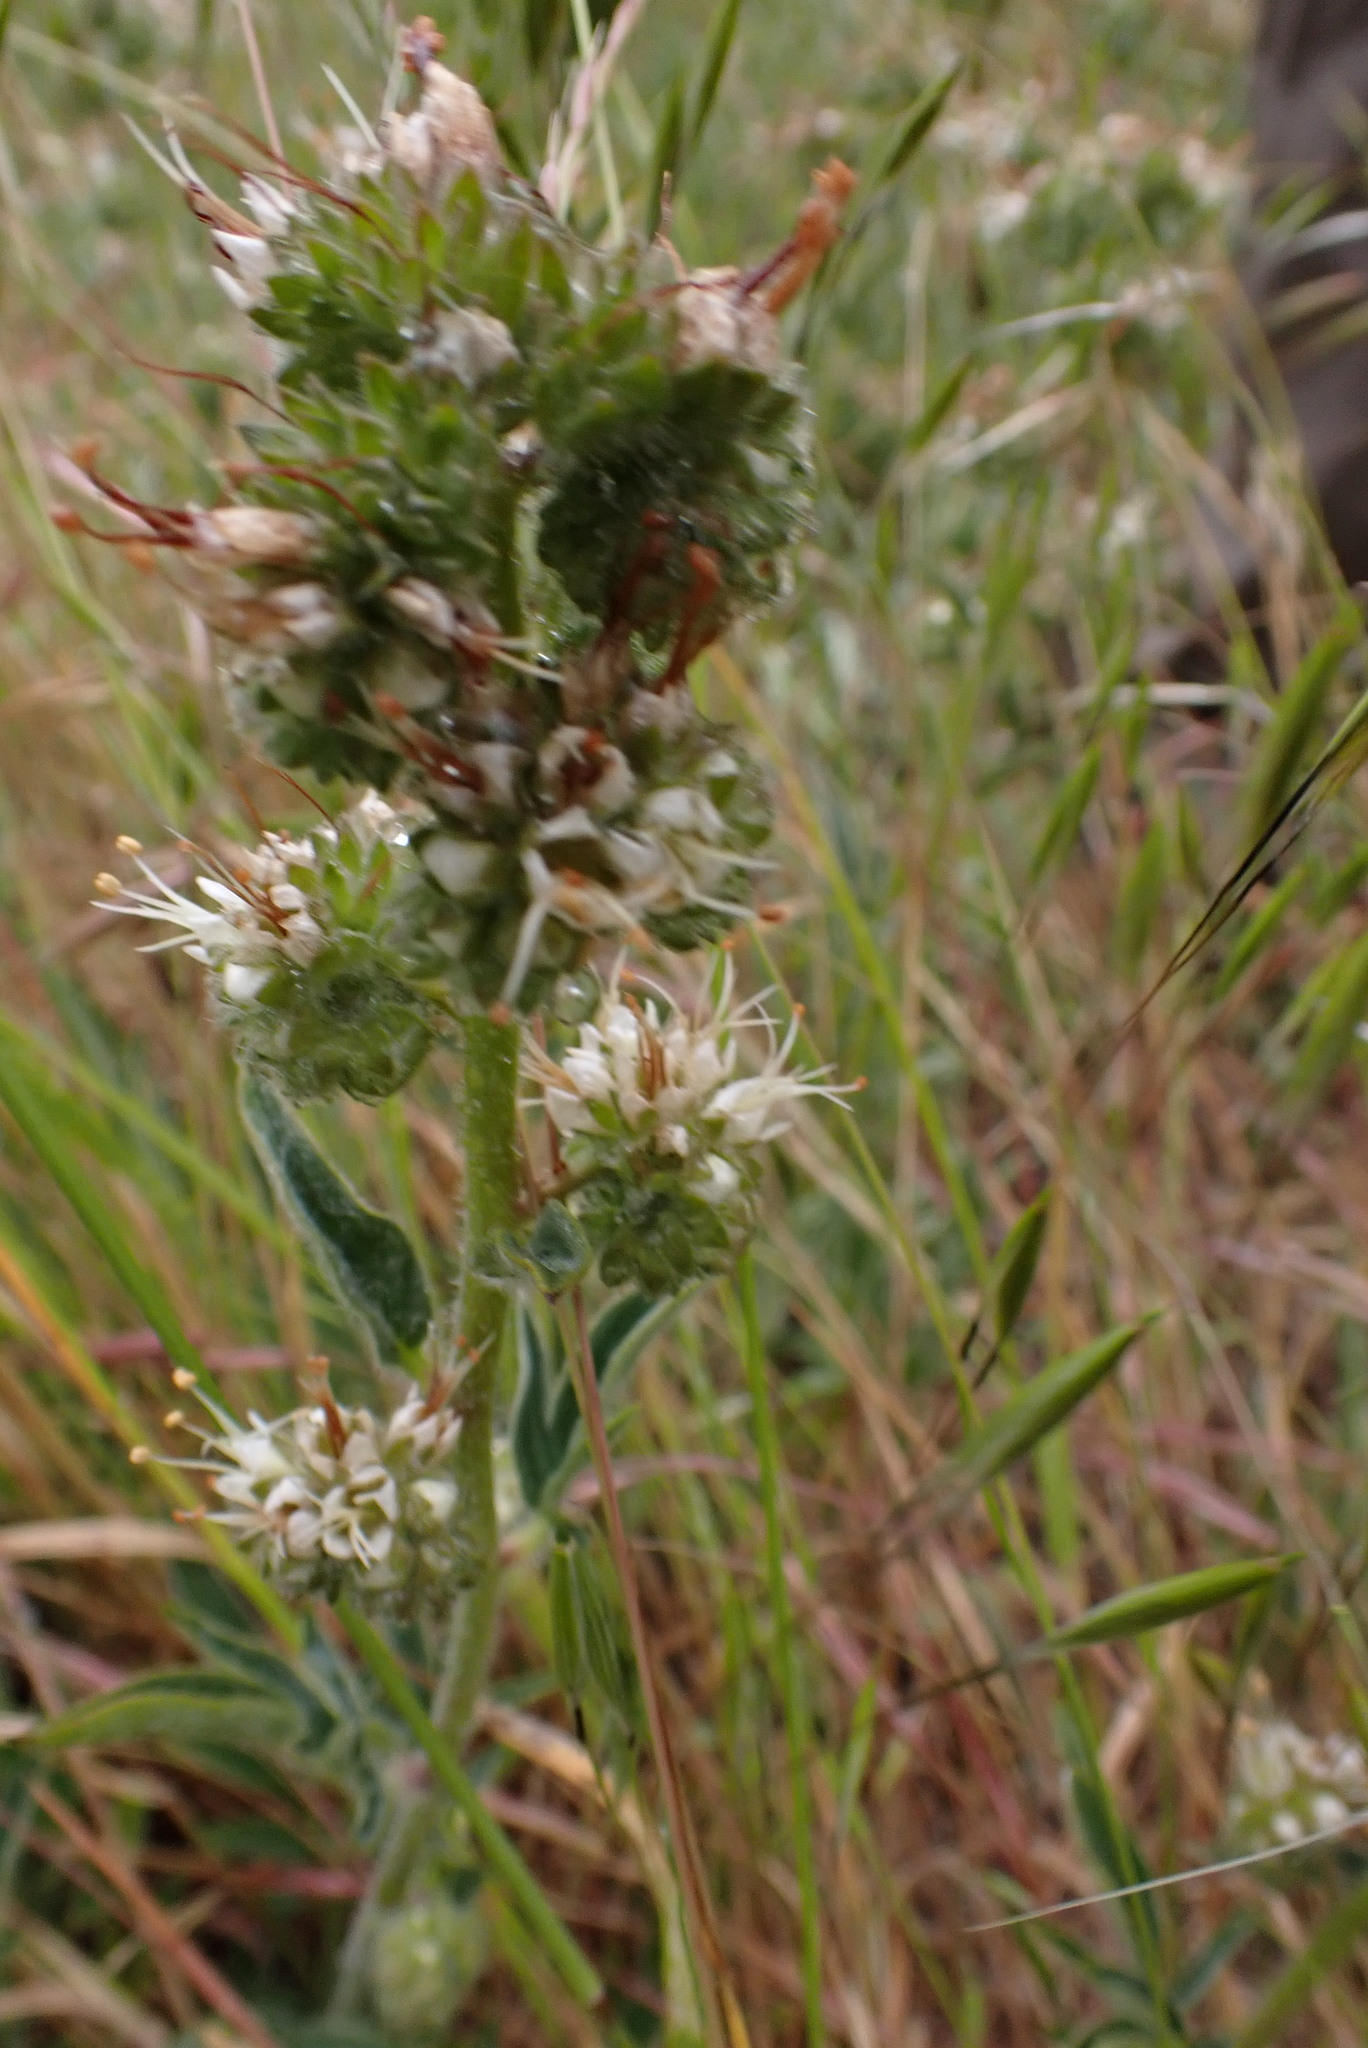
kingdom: Plantae
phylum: Tracheophyta
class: Magnoliopsida
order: Boraginales
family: Hydrophyllaceae
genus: Phacelia
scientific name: Phacelia imbricata
